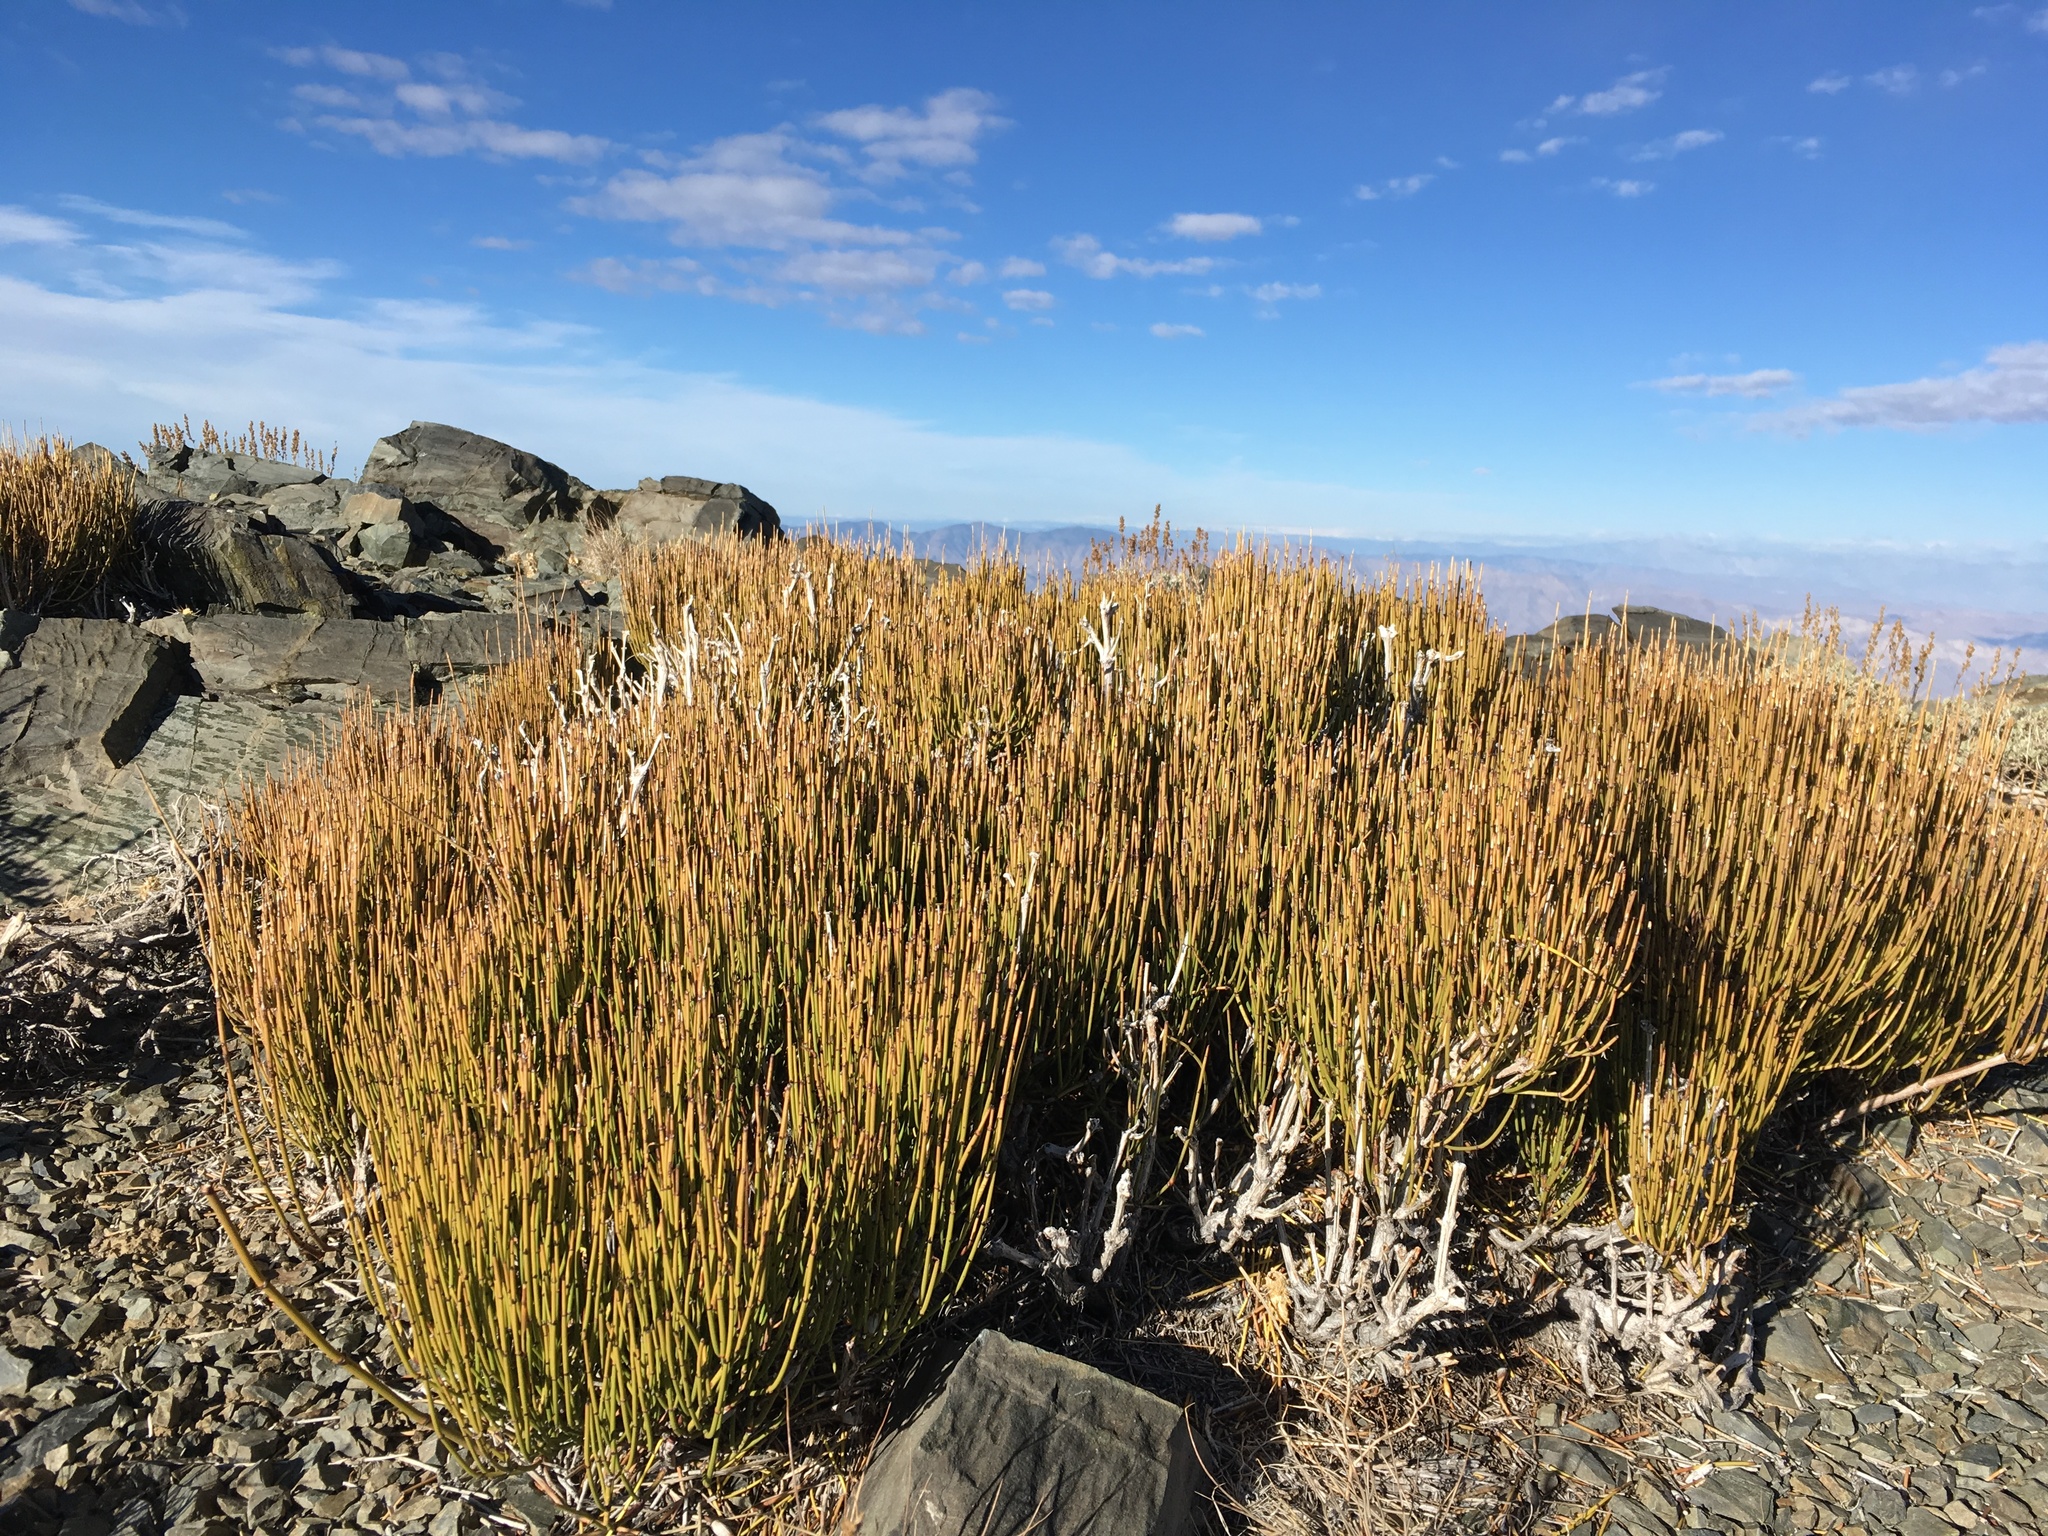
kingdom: Plantae
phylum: Tracheophyta
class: Gnetopsida
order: Ephedrales
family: Ephedraceae
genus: Ephedra
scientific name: Ephedra viridis
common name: Green ephedra
